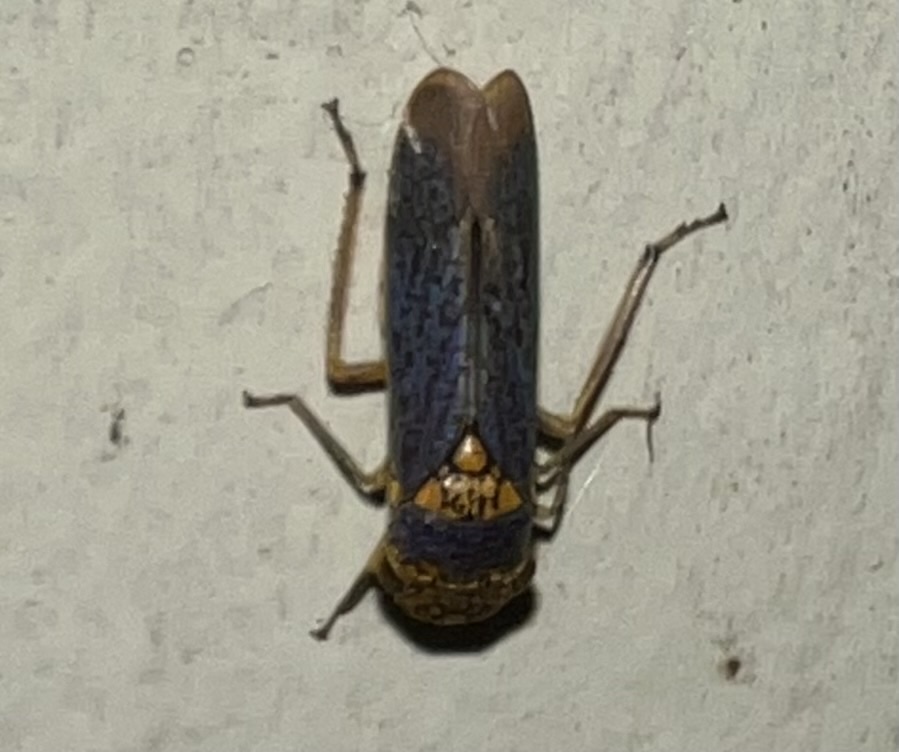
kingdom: Animalia
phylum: Arthropoda
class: Insecta
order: Hemiptera
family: Cicadellidae
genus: Oncometopia
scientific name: Oncometopia orbona
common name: Broad-headed sharpshooter
